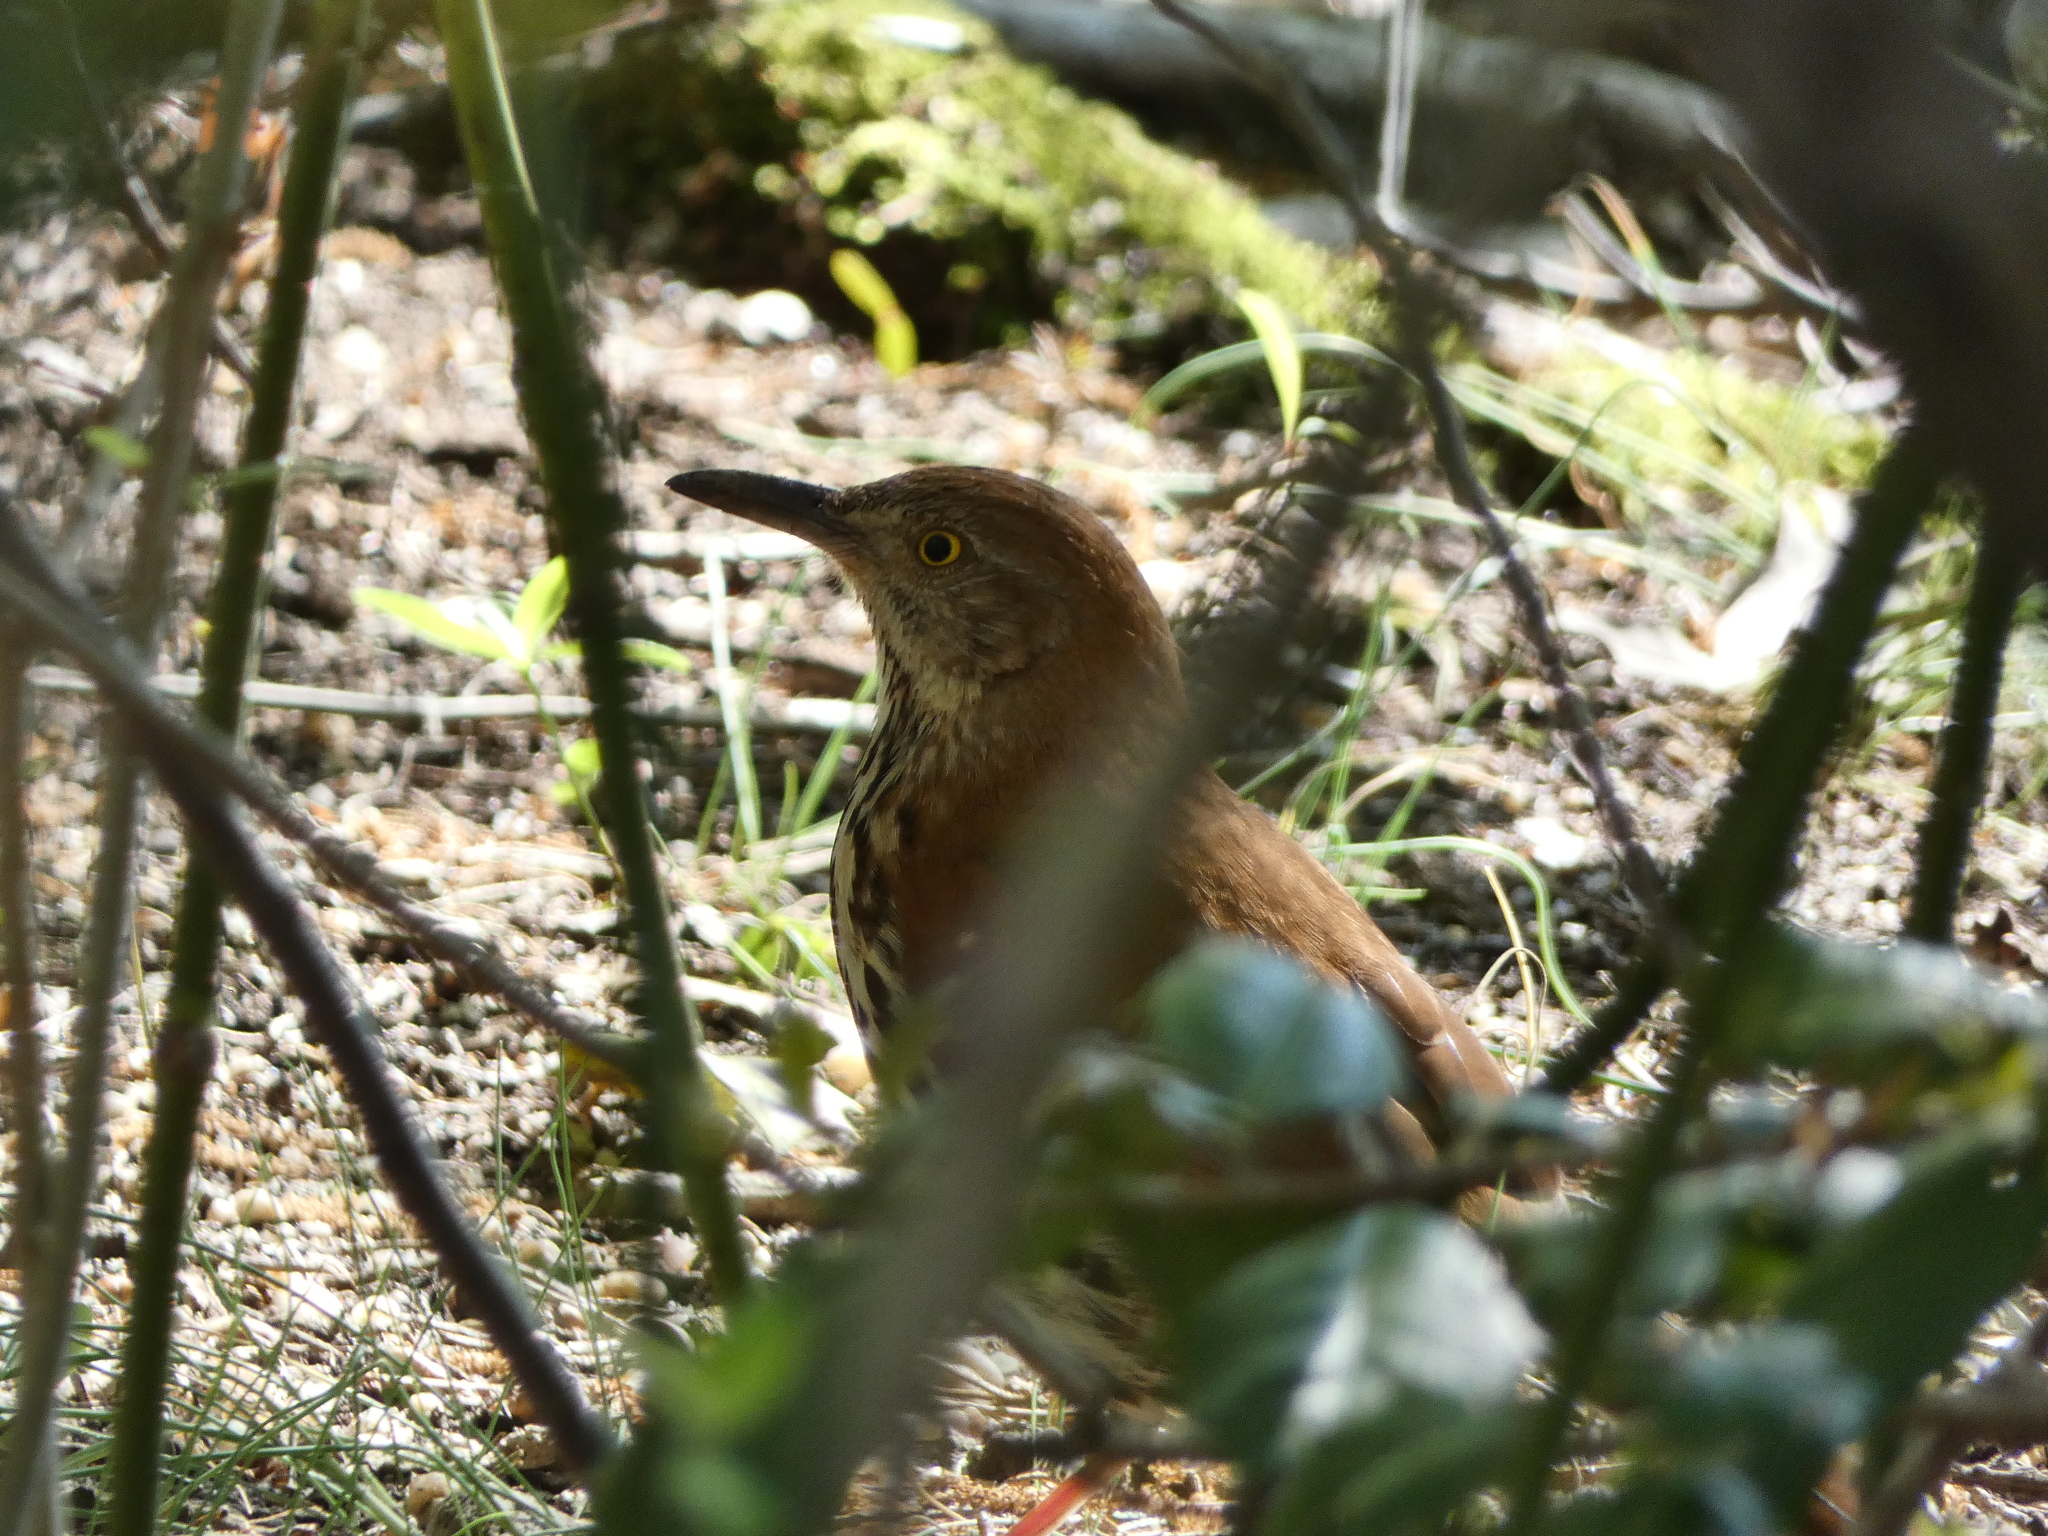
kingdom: Animalia
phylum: Chordata
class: Aves
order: Passeriformes
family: Mimidae
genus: Toxostoma
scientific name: Toxostoma rufum
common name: Brown thrasher
